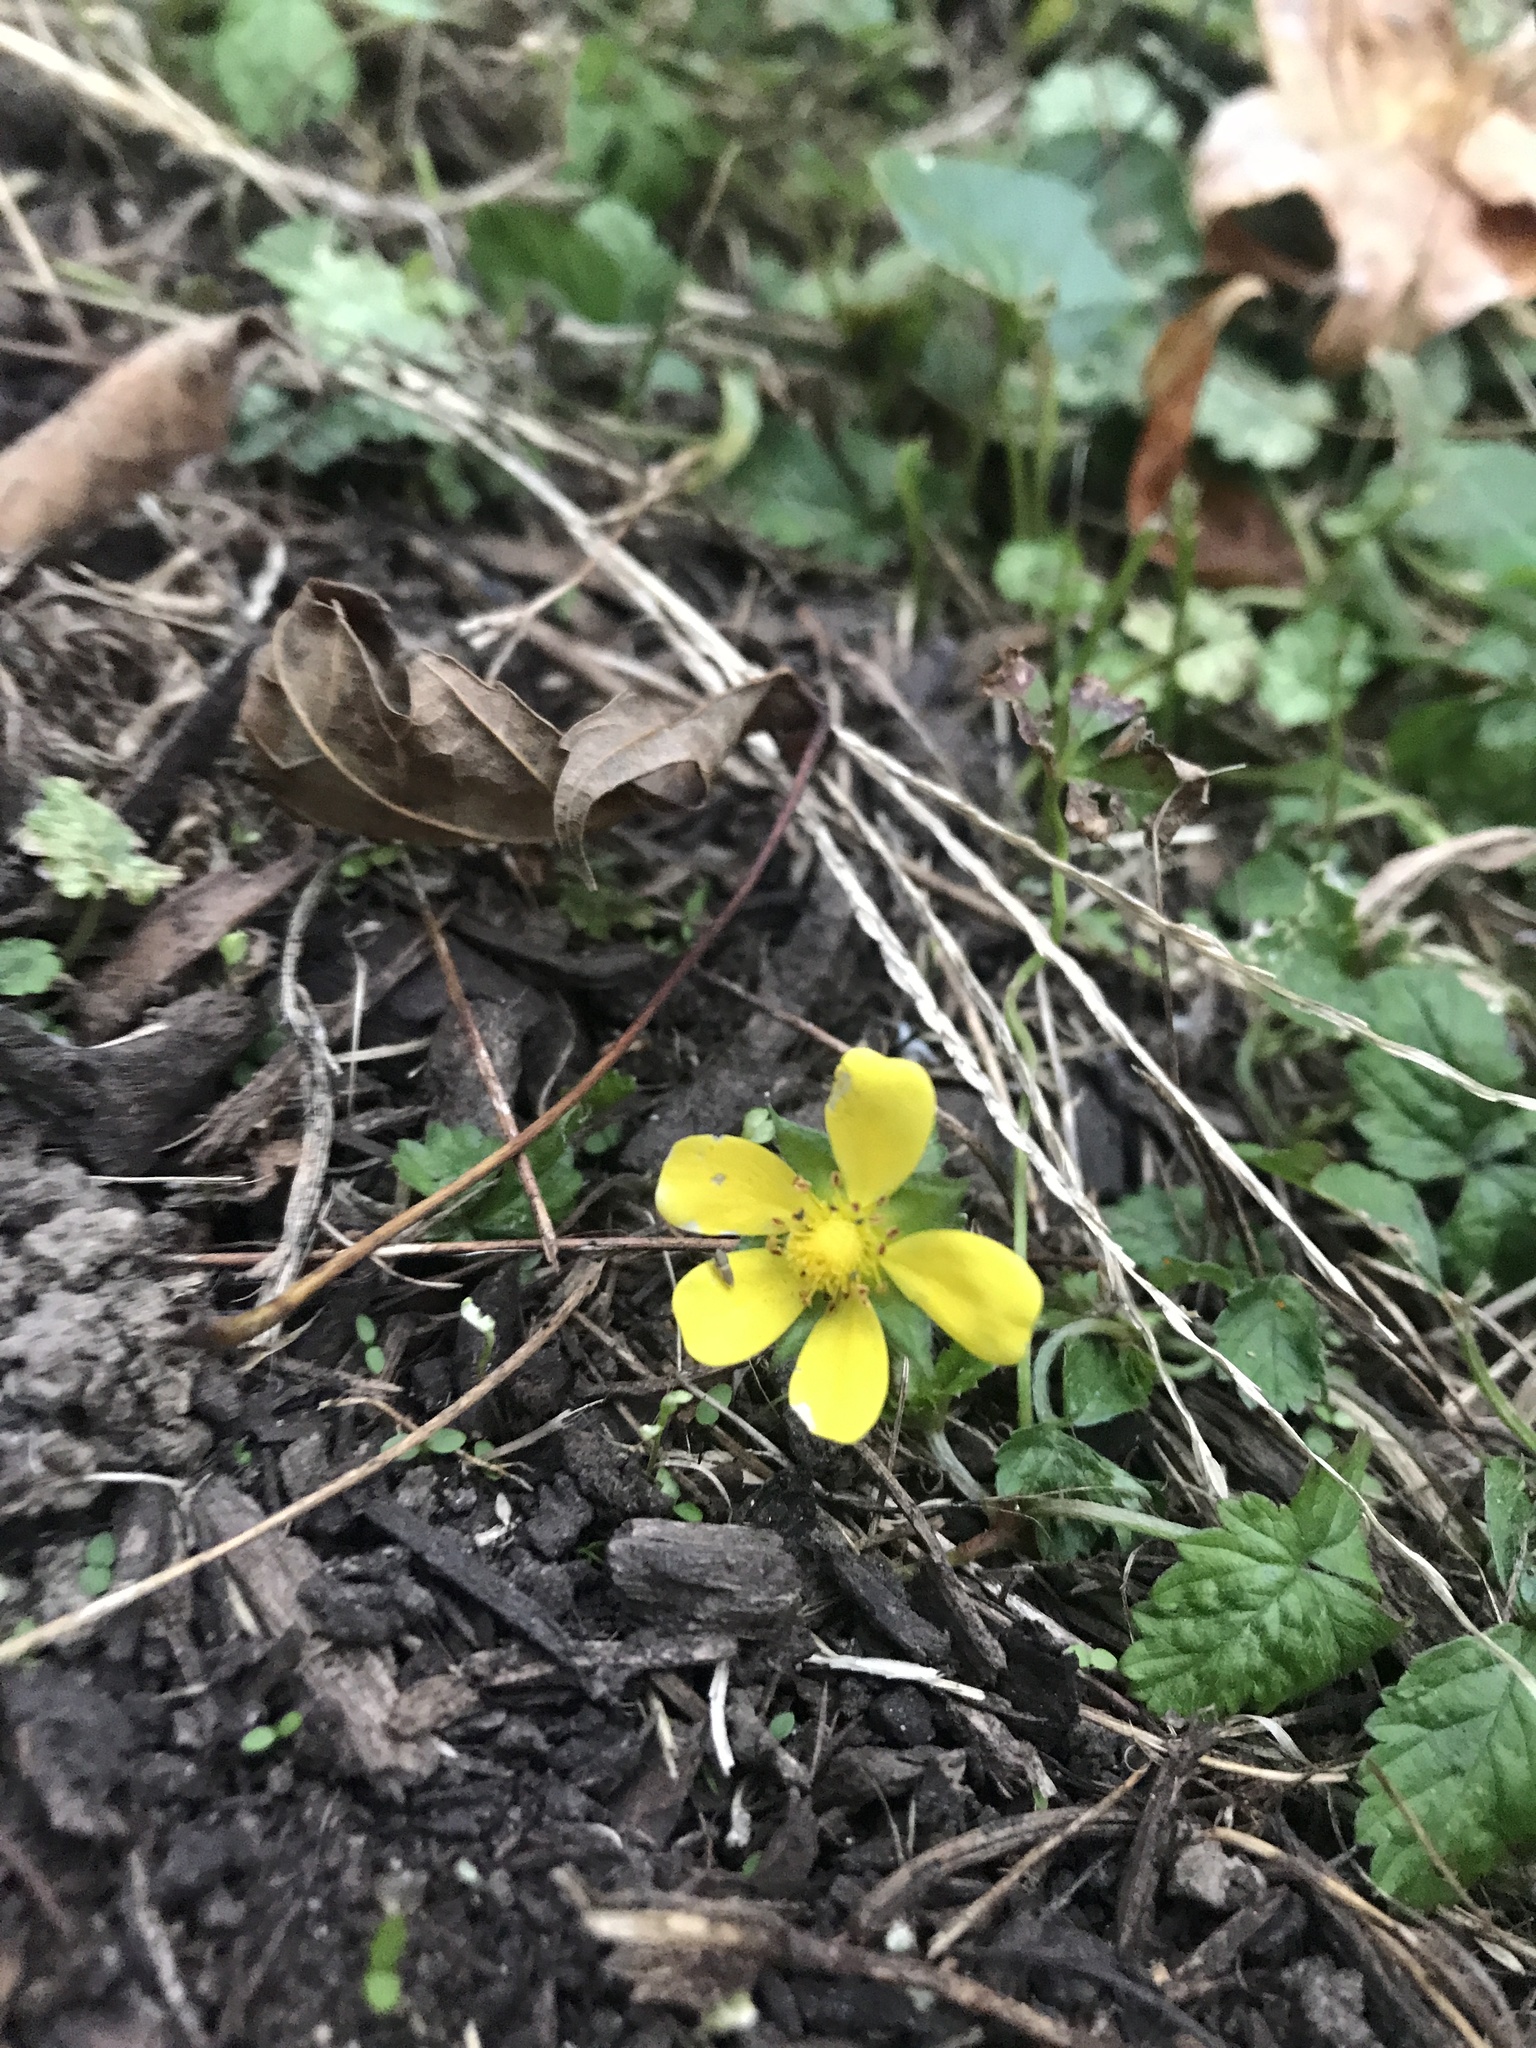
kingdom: Plantae
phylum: Tracheophyta
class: Magnoliopsida
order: Rosales
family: Rosaceae
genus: Potentilla
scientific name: Potentilla indica
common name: Yellow-flowered strawberry
